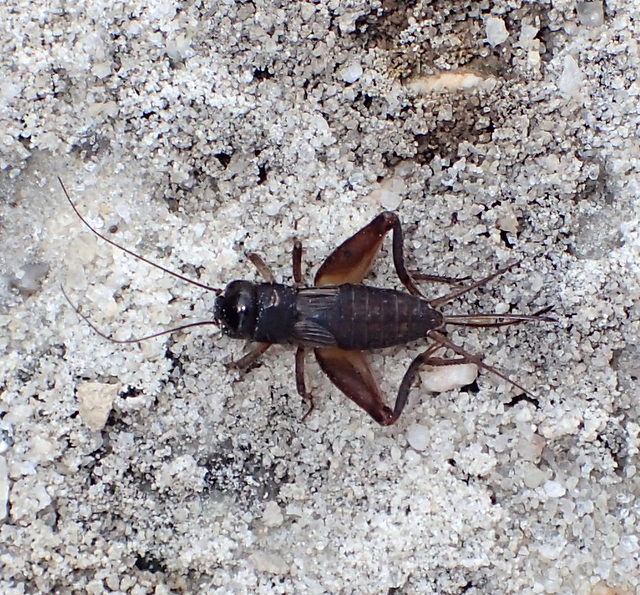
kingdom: Animalia
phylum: Arthropoda
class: Insecta
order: Orthoptera
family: Gryllidae
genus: Miogryllus
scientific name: Miogryllus verticalis
